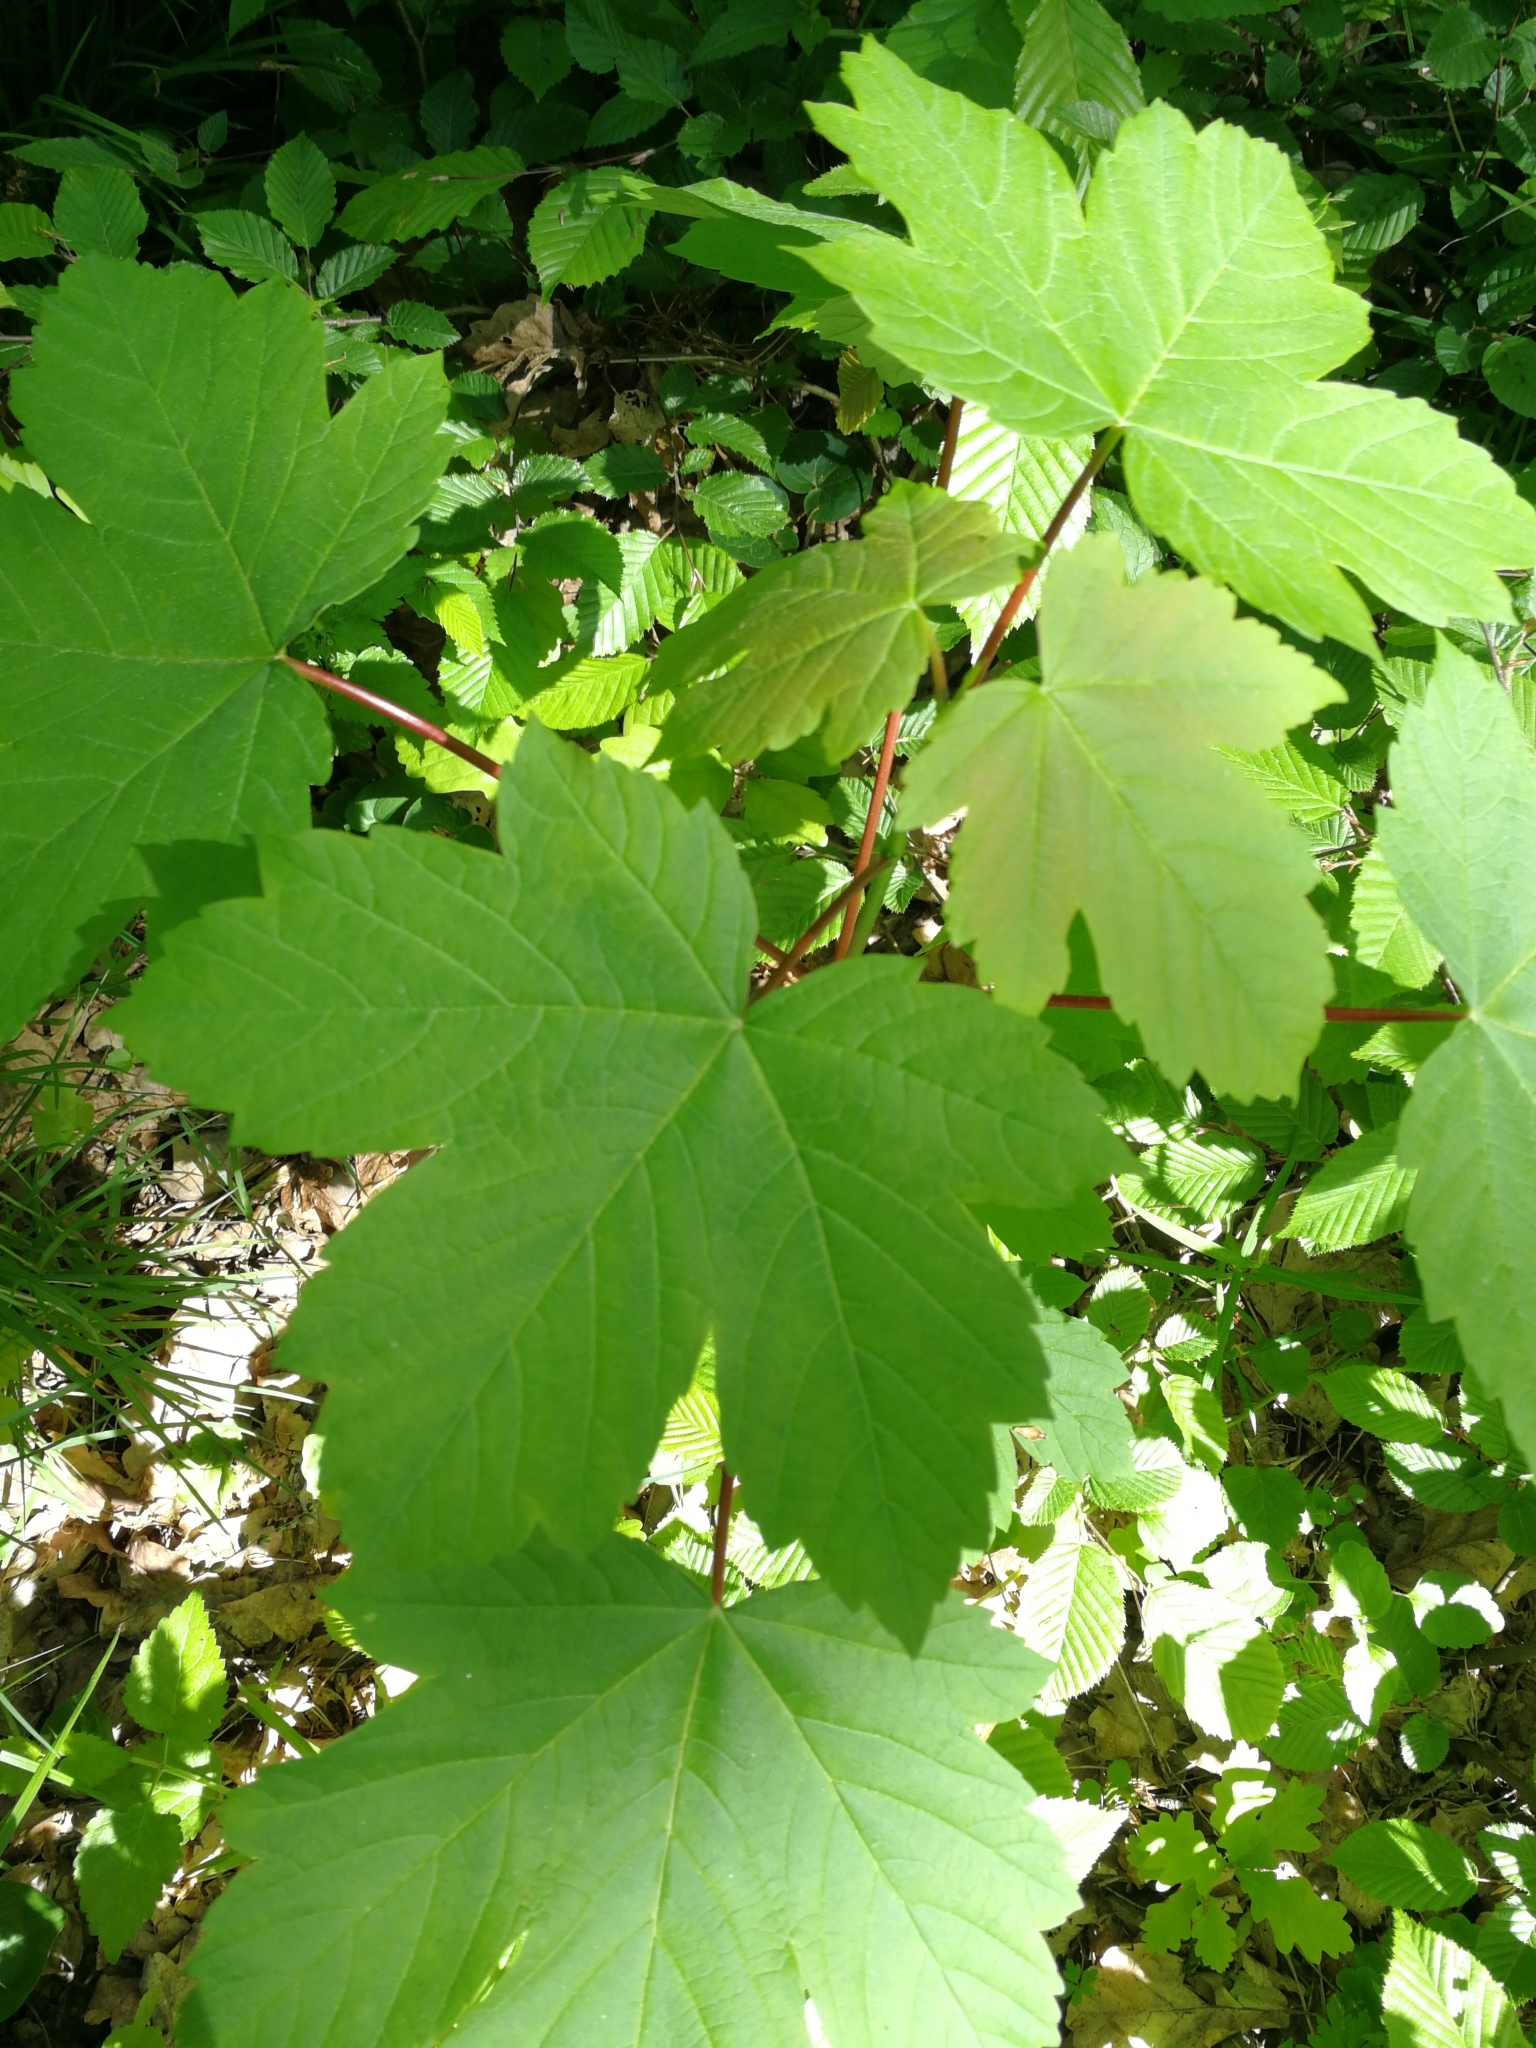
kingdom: Plantae
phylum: Tracheophyta
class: Magnoliopsida
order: Sapindales
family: Sapindaceae
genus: Acer
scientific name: Acer pseudoplatanus
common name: Sycamore
